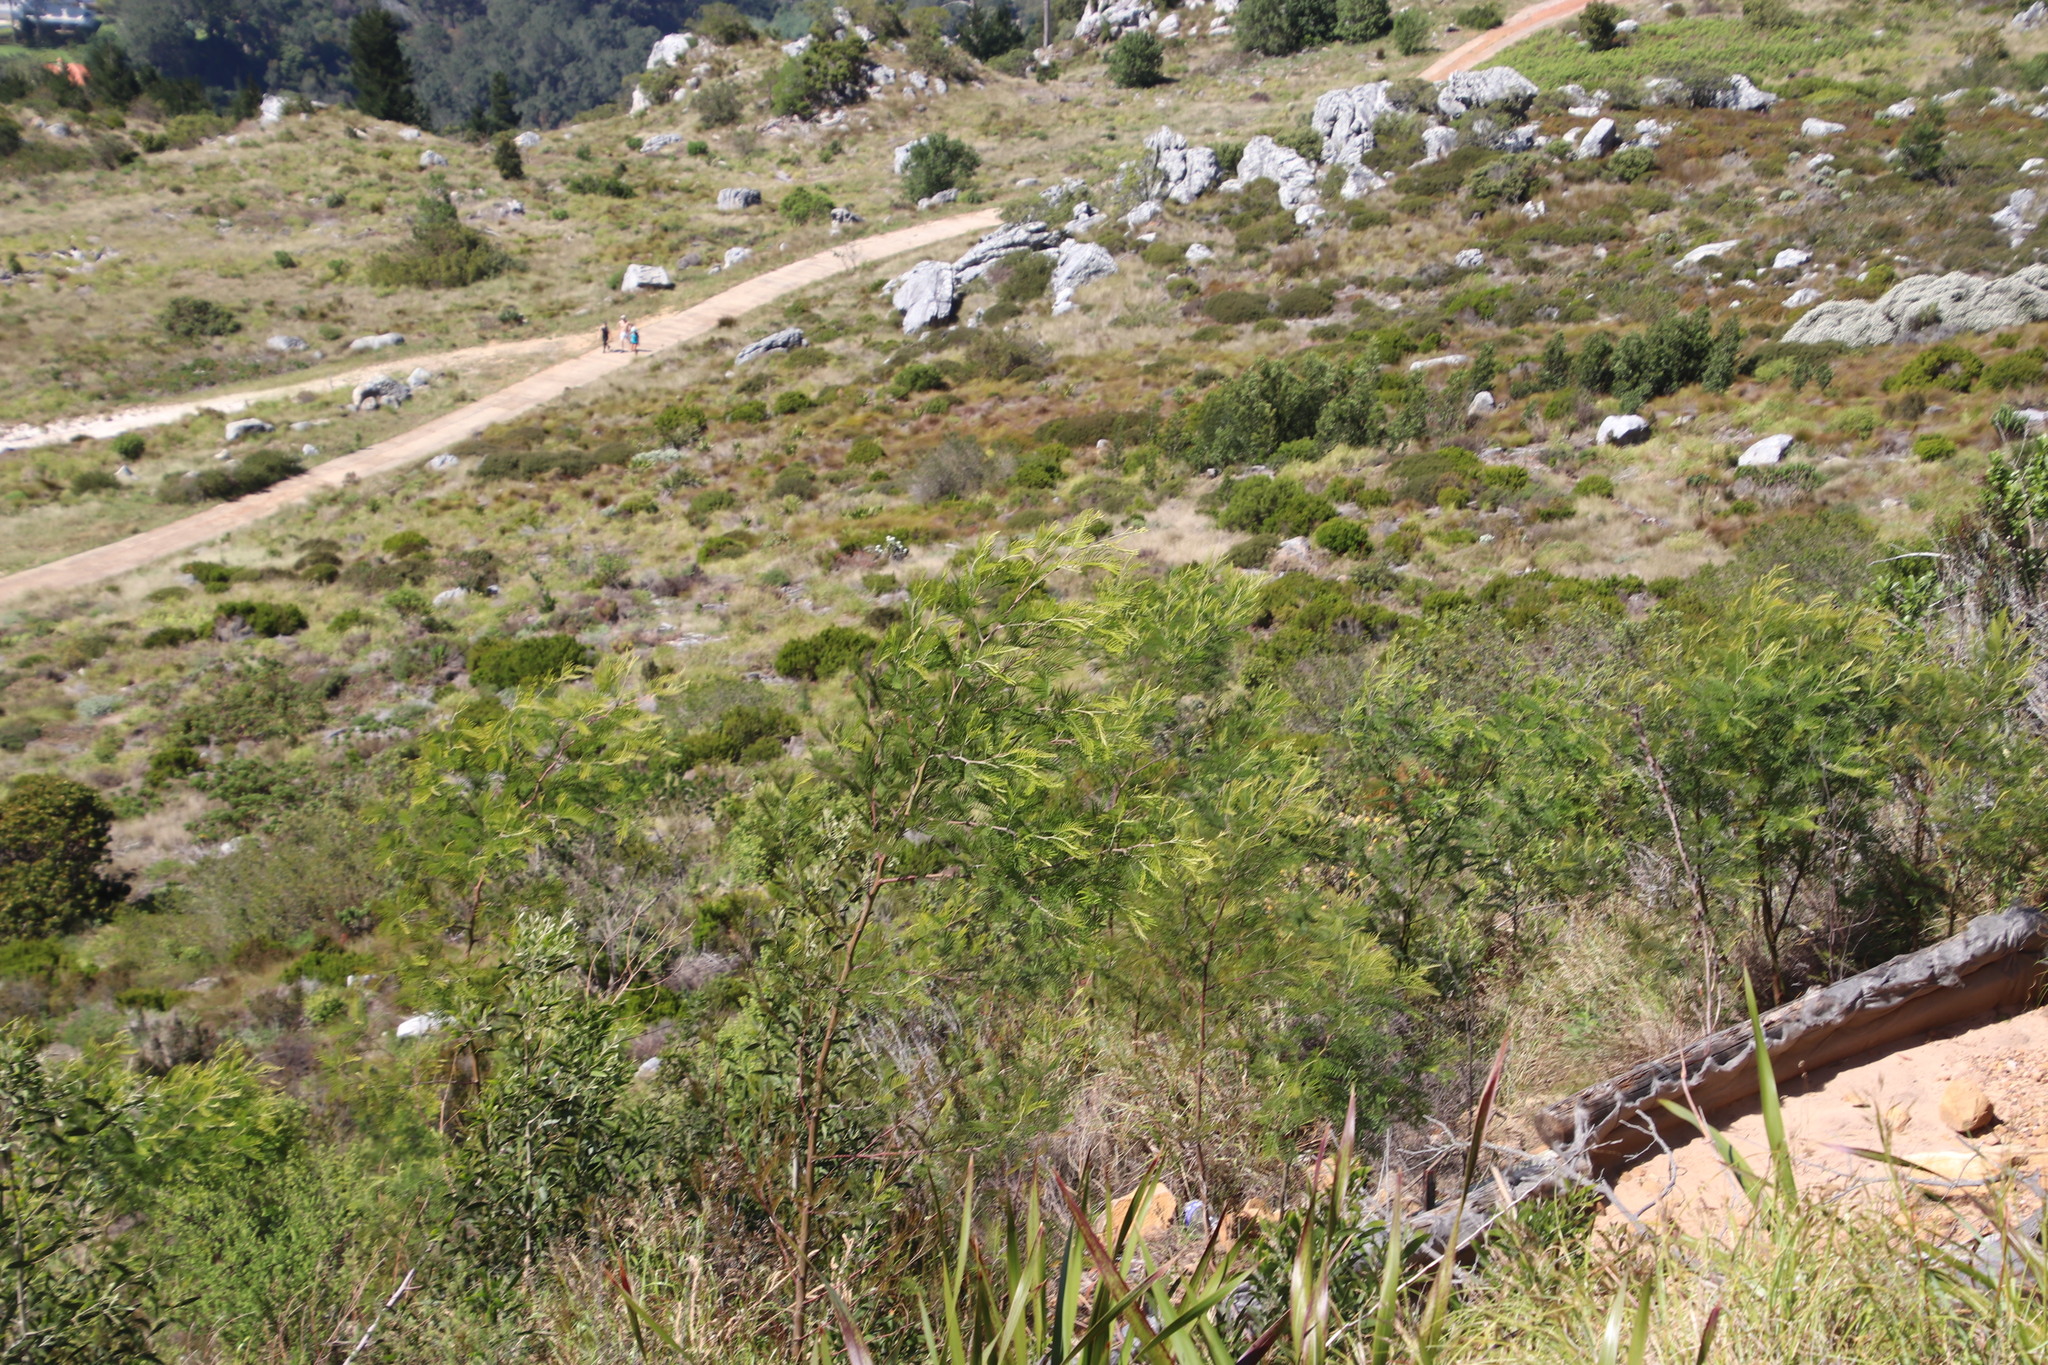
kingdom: Plantae
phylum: Tracheophyta
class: Magnoliopsida
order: Fabales
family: Fabaceae
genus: Acacia
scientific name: Acacia mearnsii
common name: Black wattle
